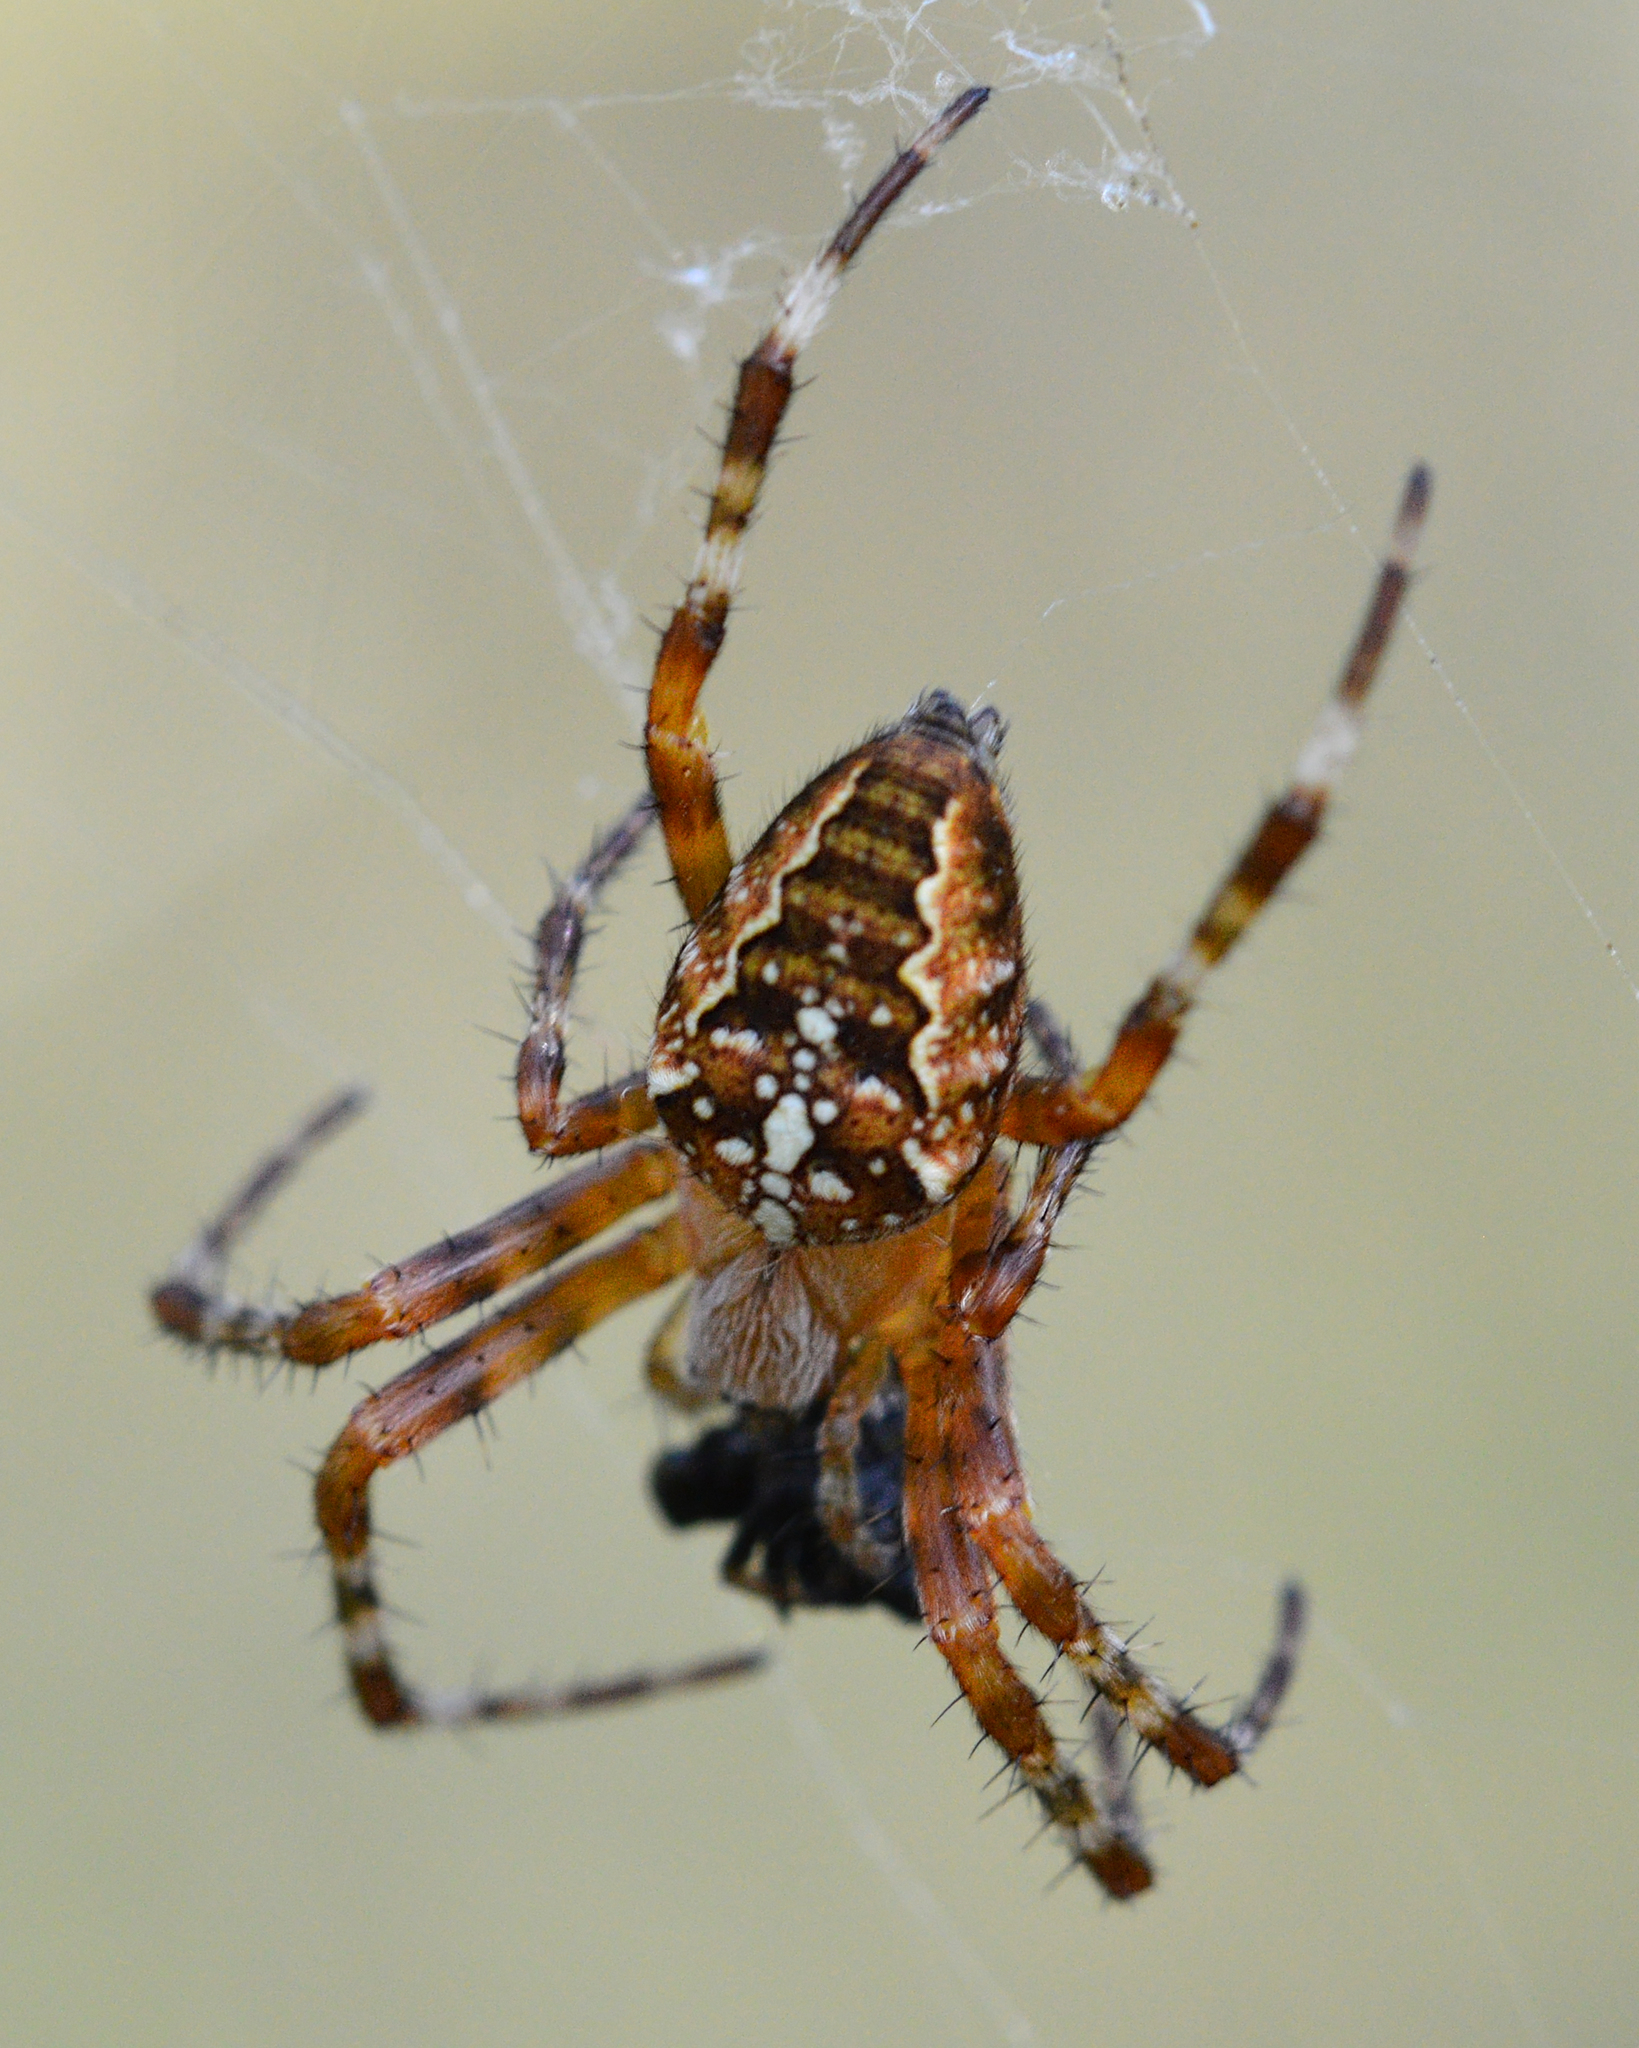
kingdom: Animalia
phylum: Arthropoda
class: Arachnida
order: Araneae
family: Araneidae
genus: Araneus
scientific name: Araneus diadematus
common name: Cross orbweaver
